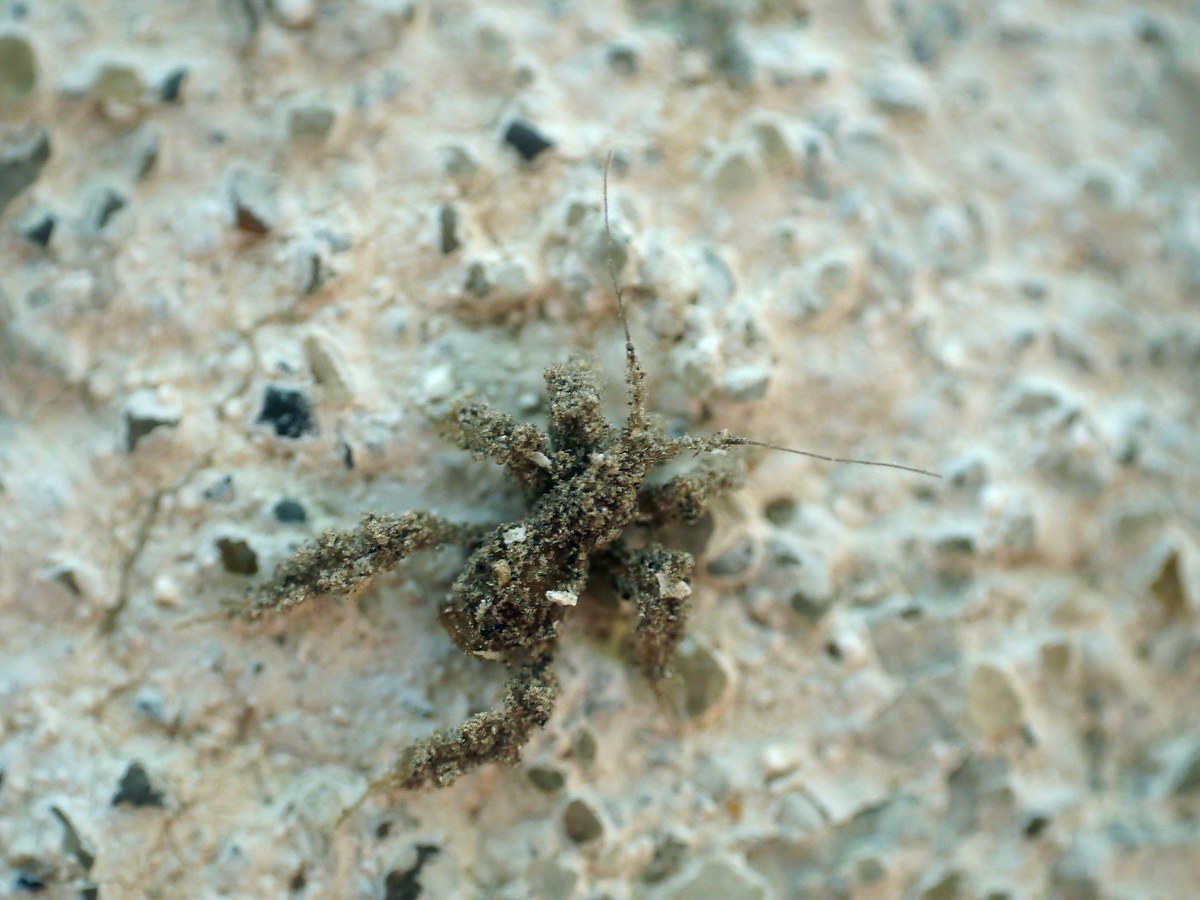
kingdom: Animalia
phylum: Arthropoda
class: Insecta
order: Hemiptera
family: Reduviidae
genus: Reduvius
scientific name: Reduvius personatus
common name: Masked hunter
